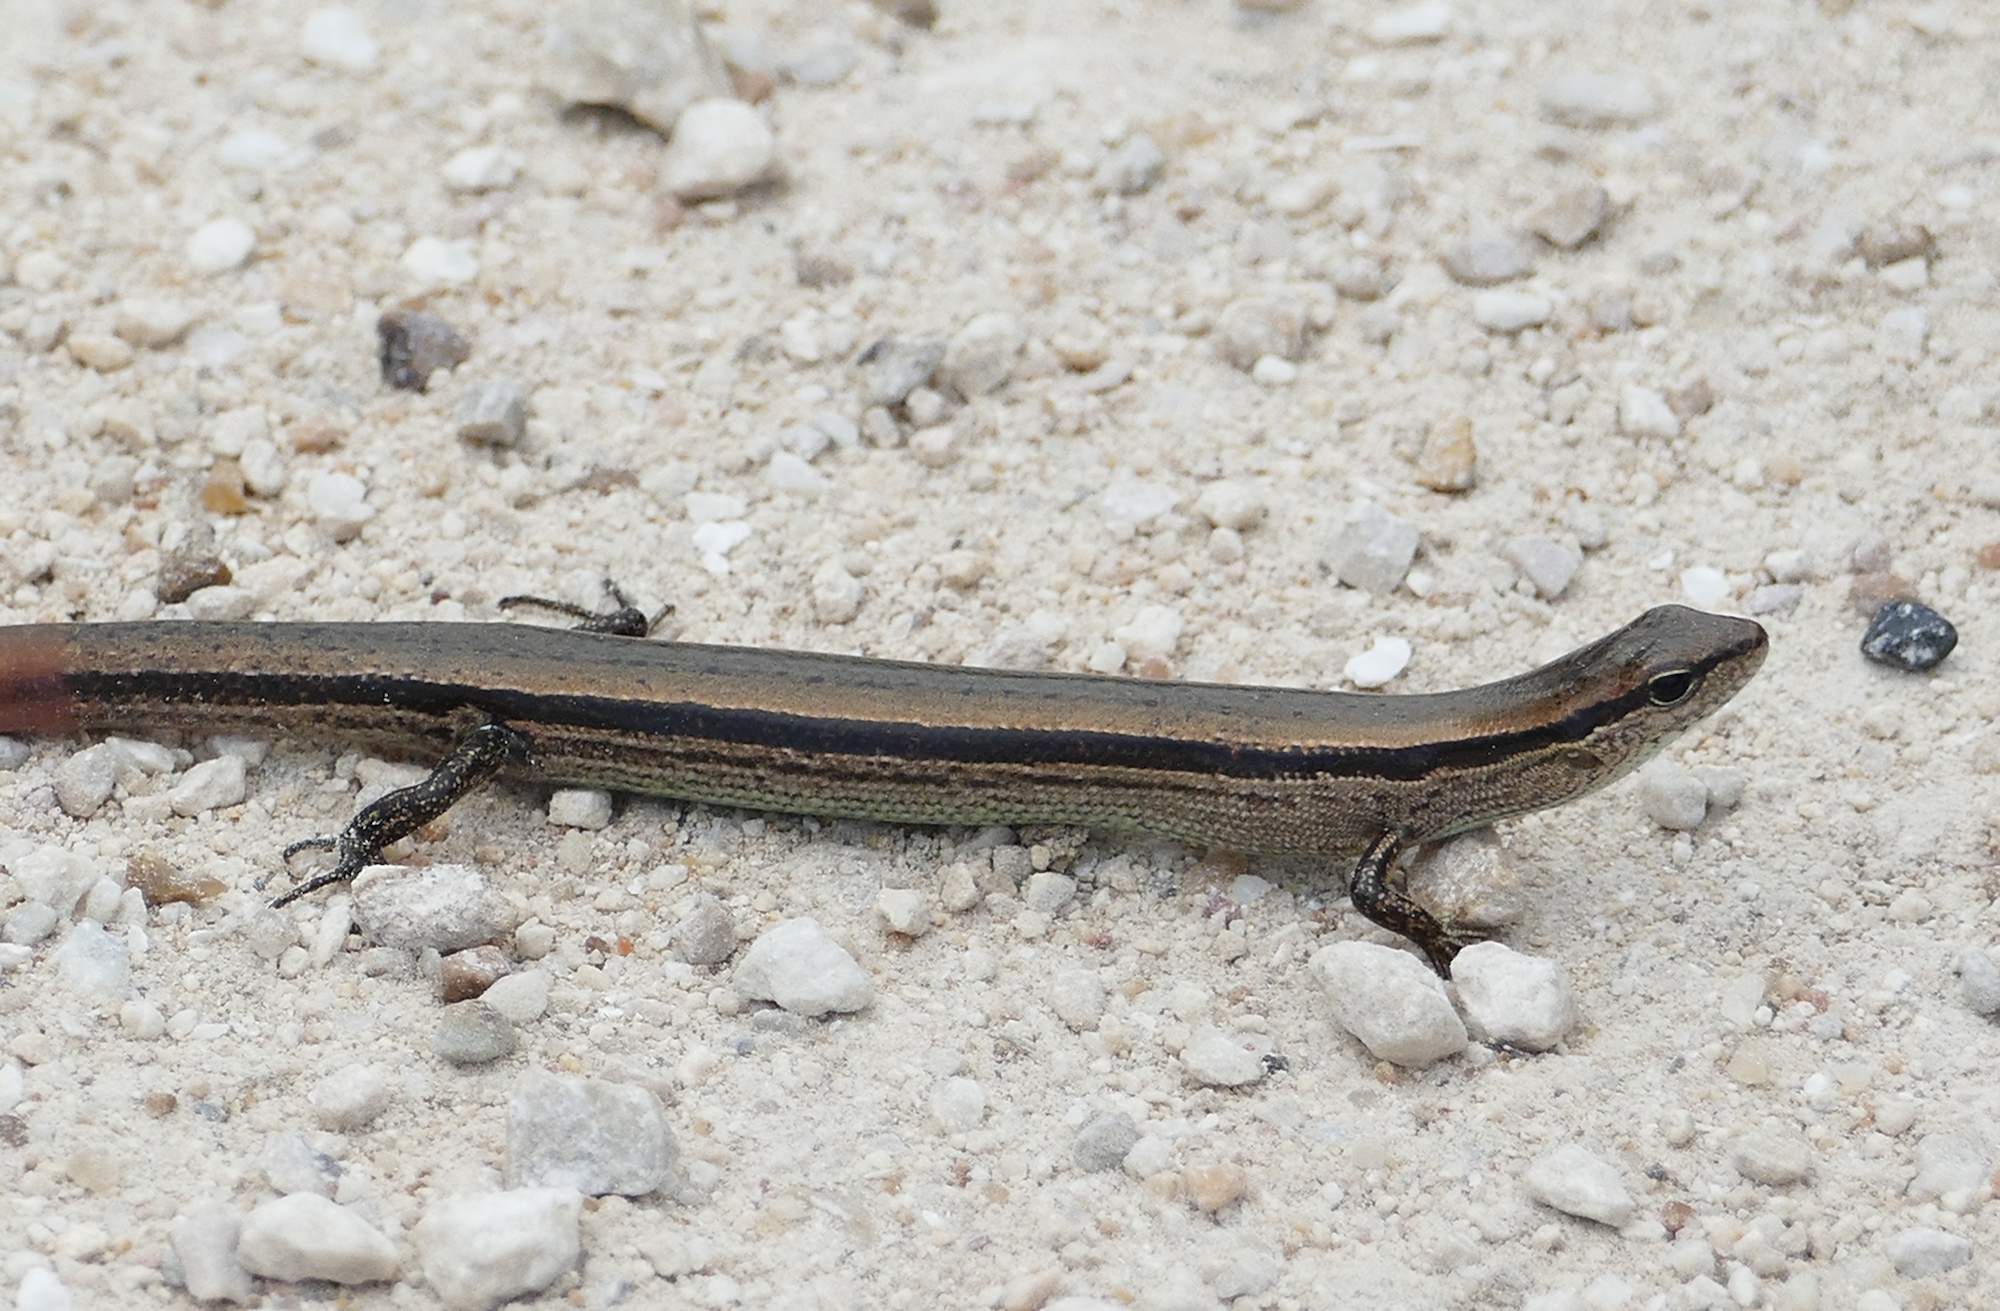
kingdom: Animalia
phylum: Chordata
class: Squamata
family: Scincidae
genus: Scincella
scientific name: Scincella lateralis
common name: Ground skink
